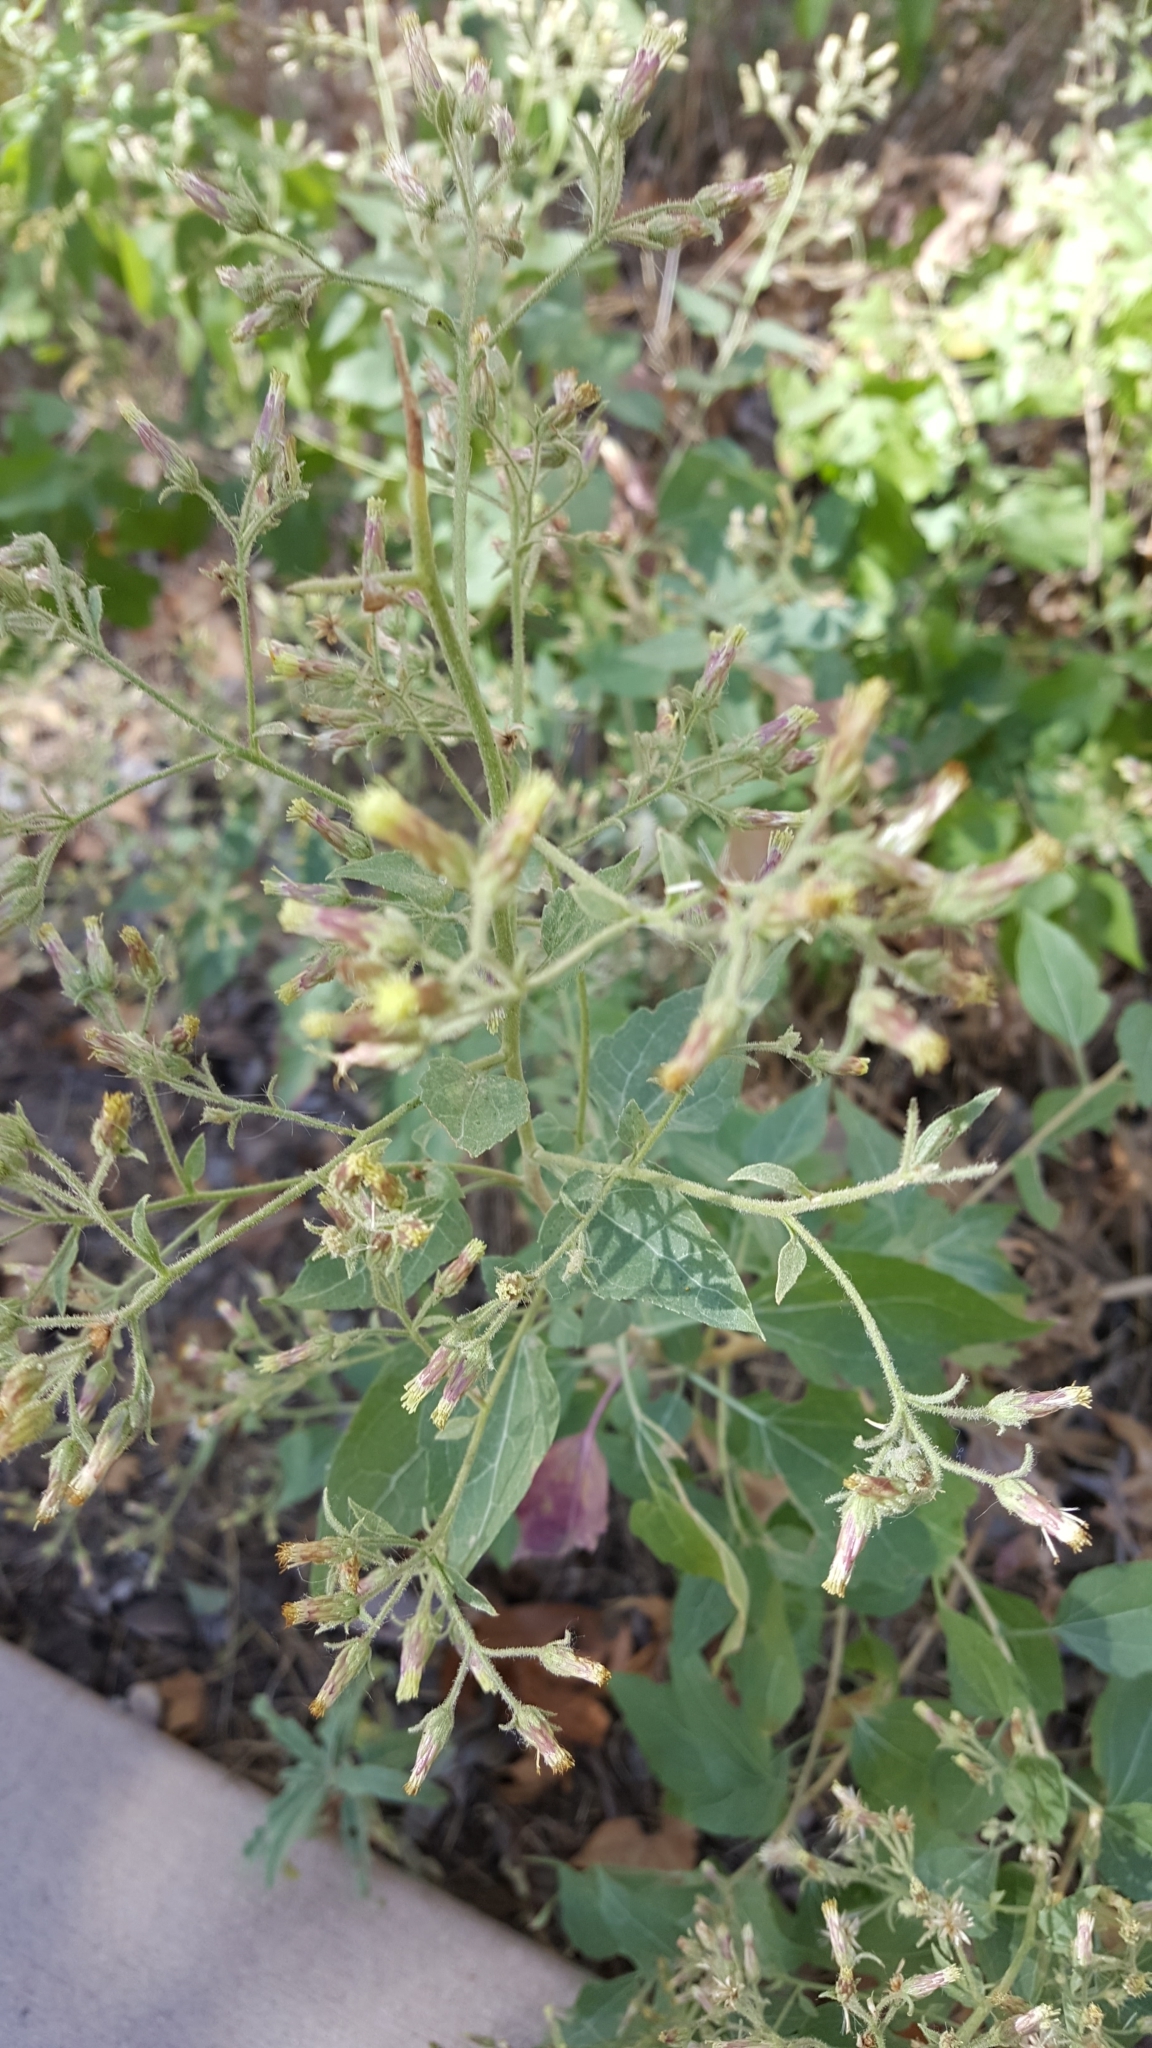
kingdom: Plantae
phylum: Tracheophyta
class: Magnoliopsida
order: Asterales
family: Asteraceae
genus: Brickellia
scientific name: Brickellia floribunda
